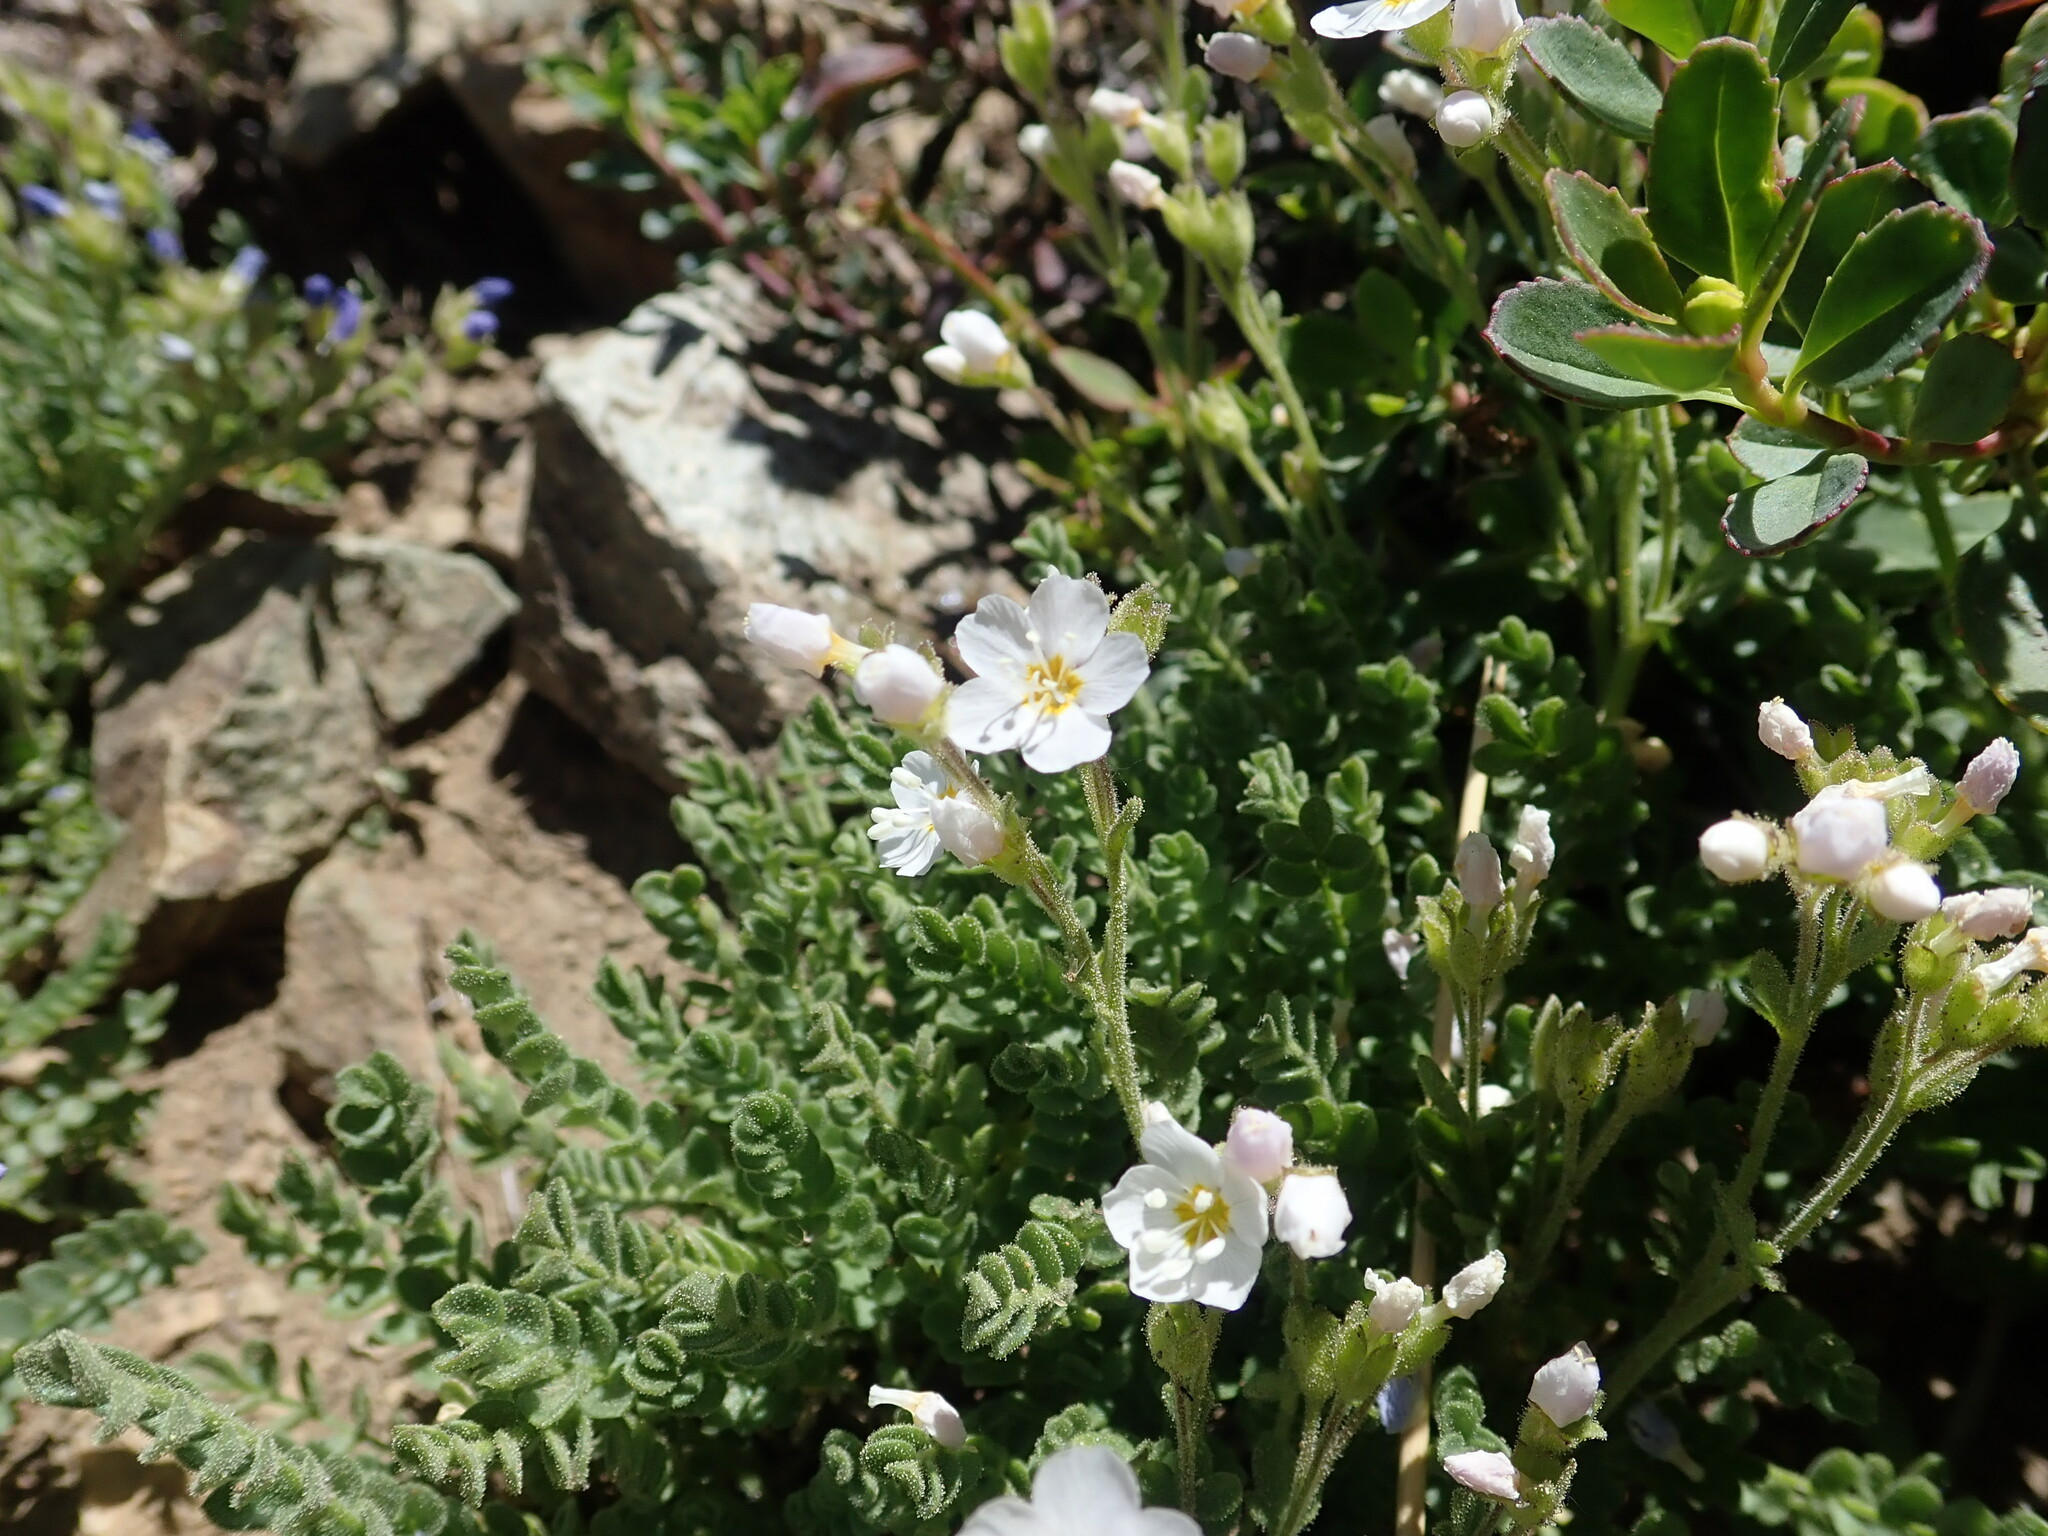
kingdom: Plantae
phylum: Tracheophyta
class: Magnoliopsida
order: Ericales
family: Polemoniaceae
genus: Polemonium
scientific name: Polemonium pulcherrimum
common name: Short jacob's-ladder
